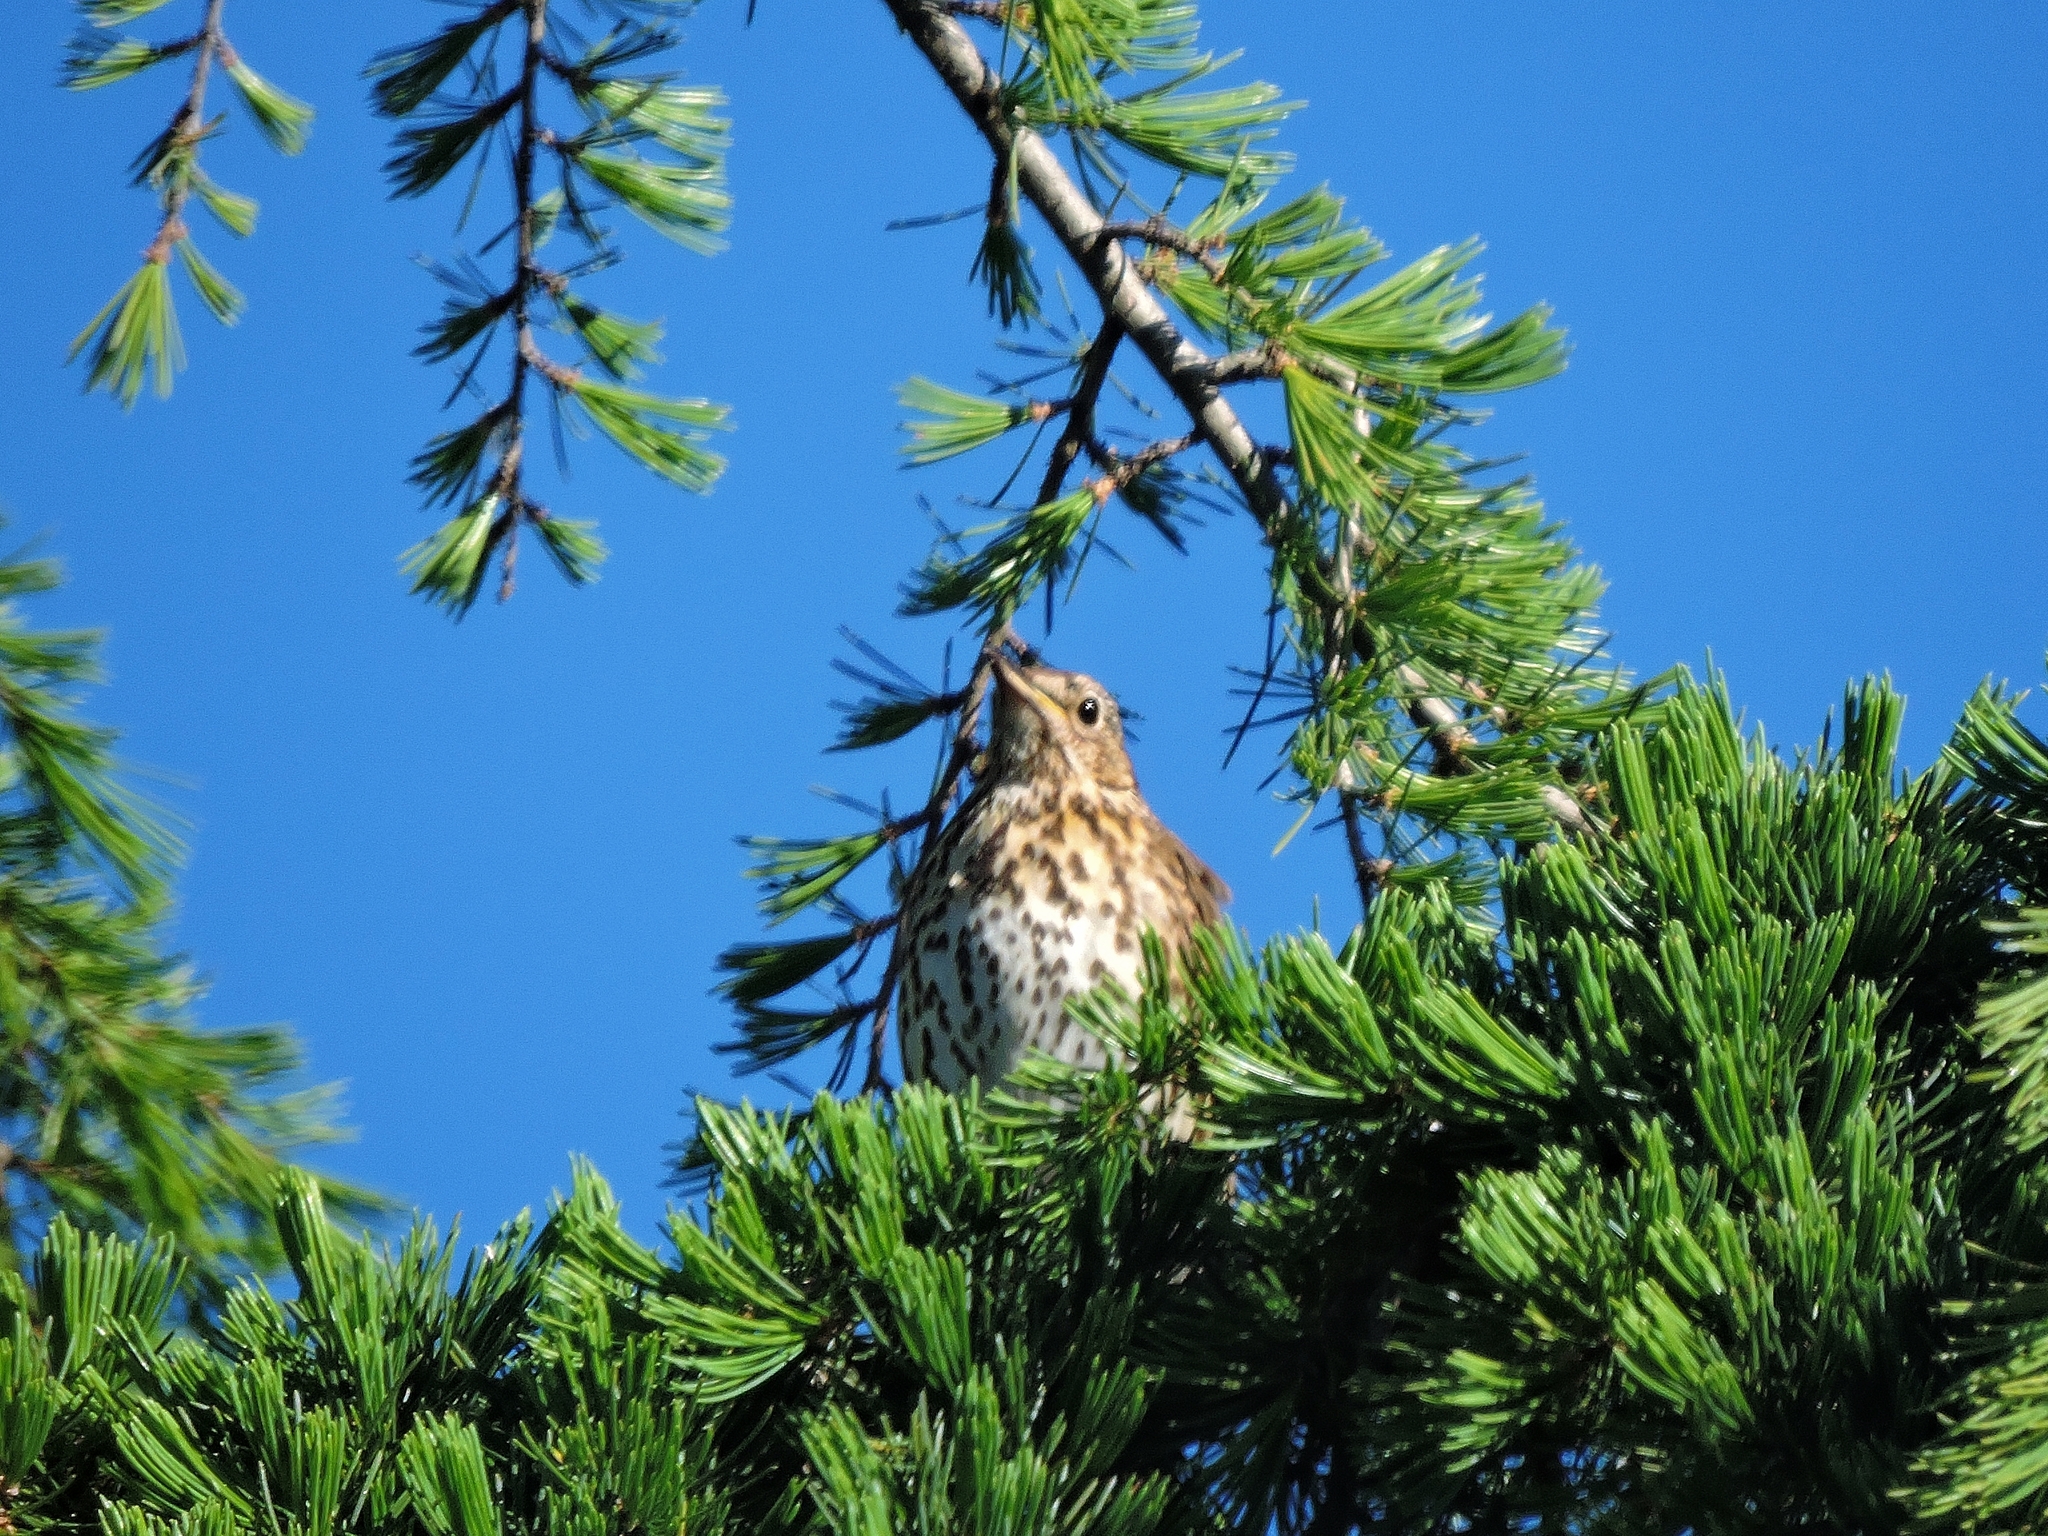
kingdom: Animalia
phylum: Chordata
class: Aves
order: Passeriformes
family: Turdidae
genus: Turdus
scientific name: Turdus philomelos
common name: Song thrush
